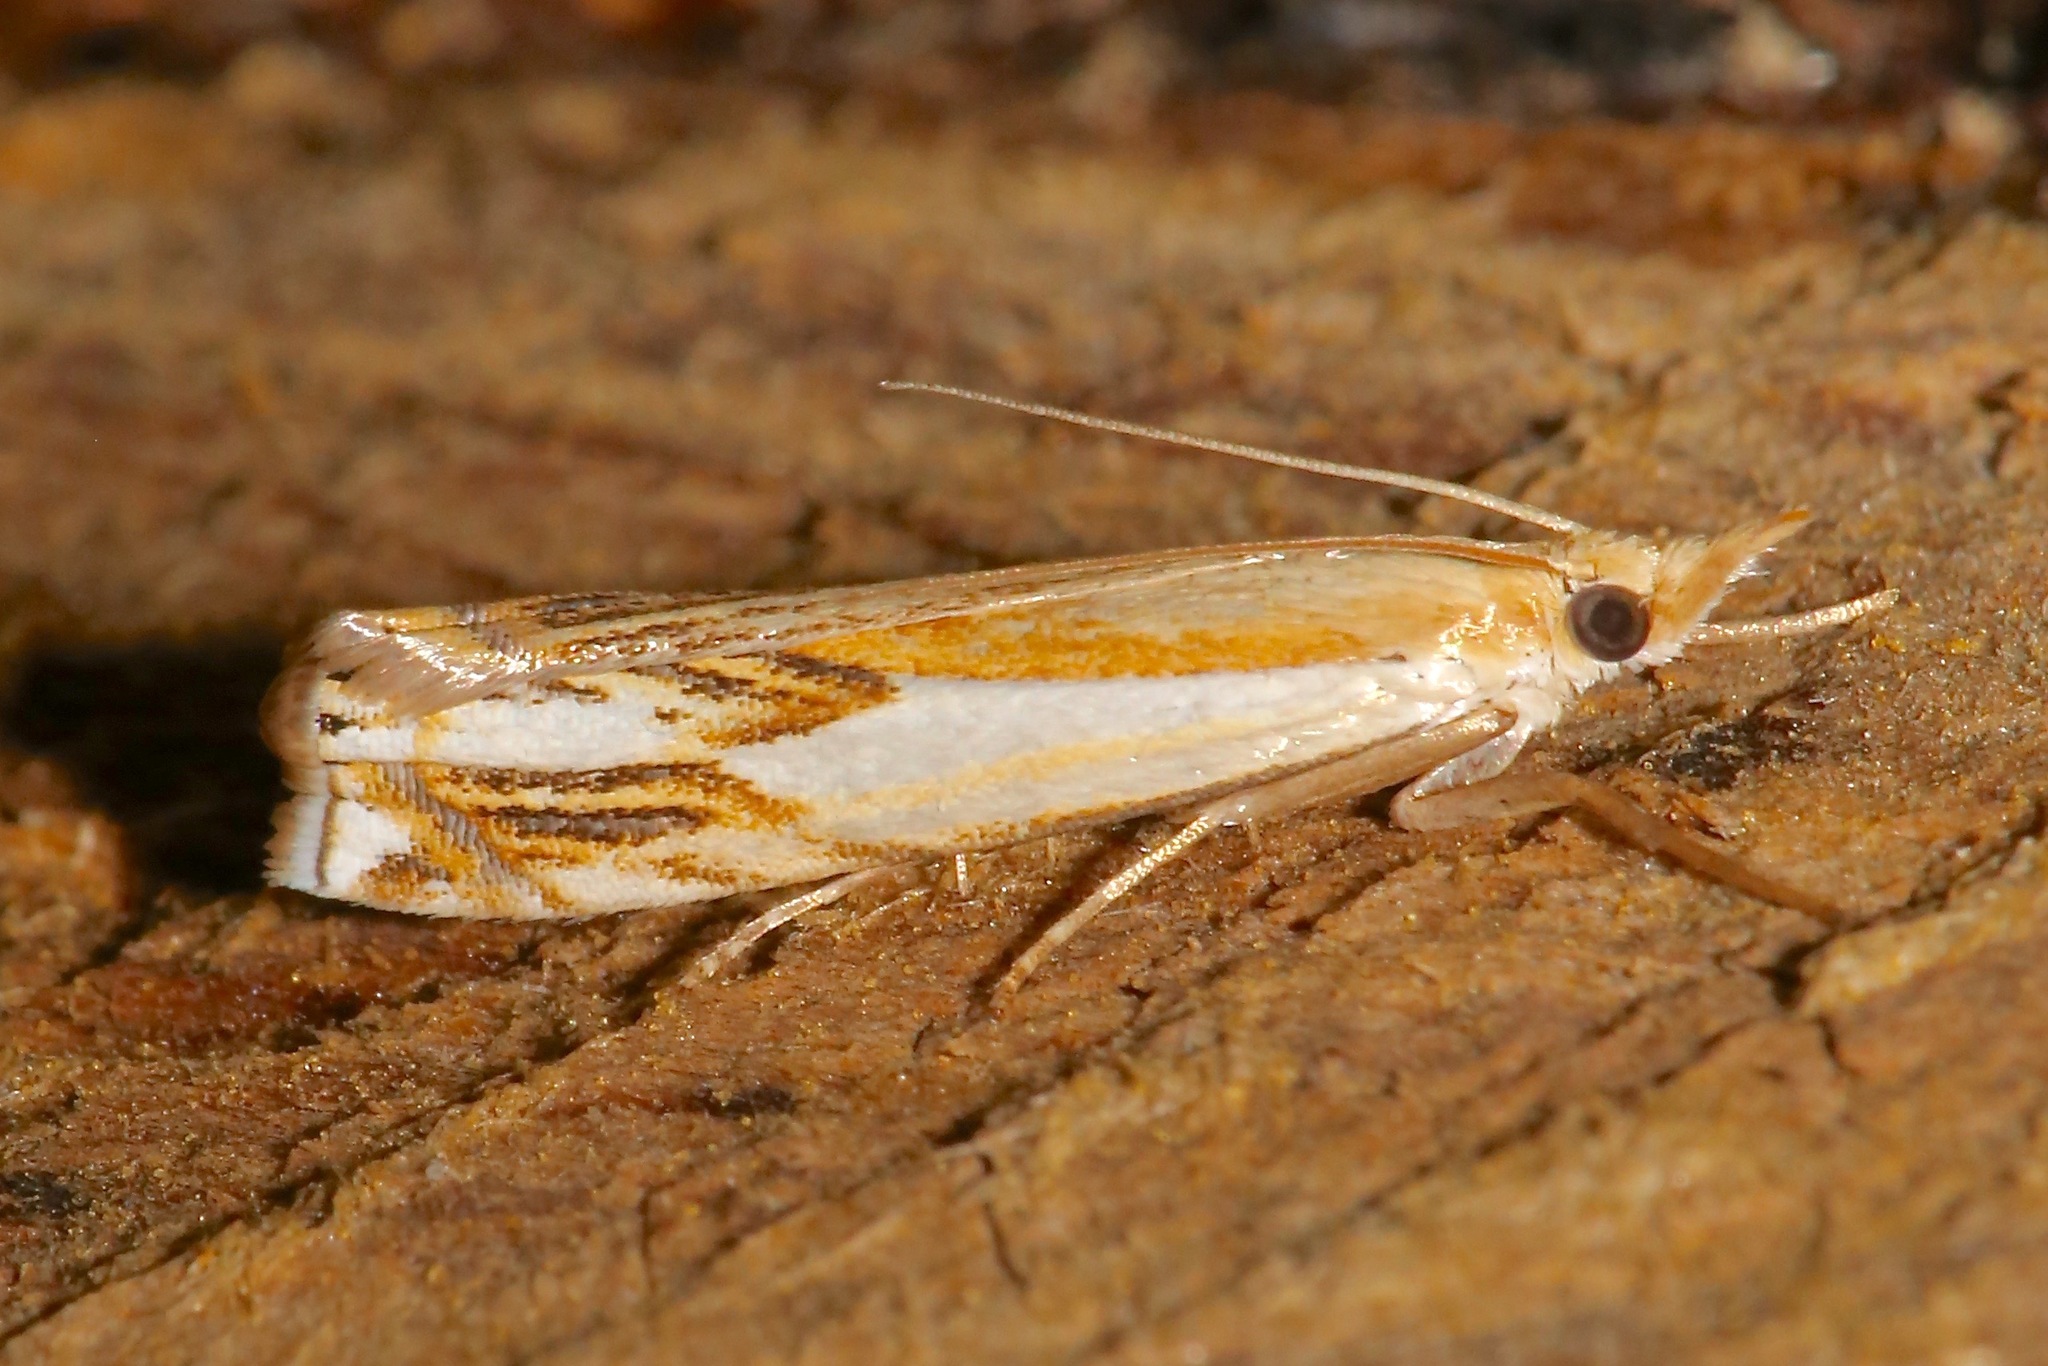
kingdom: Animalia
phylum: Arthropoda
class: Insecta
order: Lepidoptera
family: Crambidae
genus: Crambus
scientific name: Crambus agitatellus
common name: Double-banded grass-veneer
